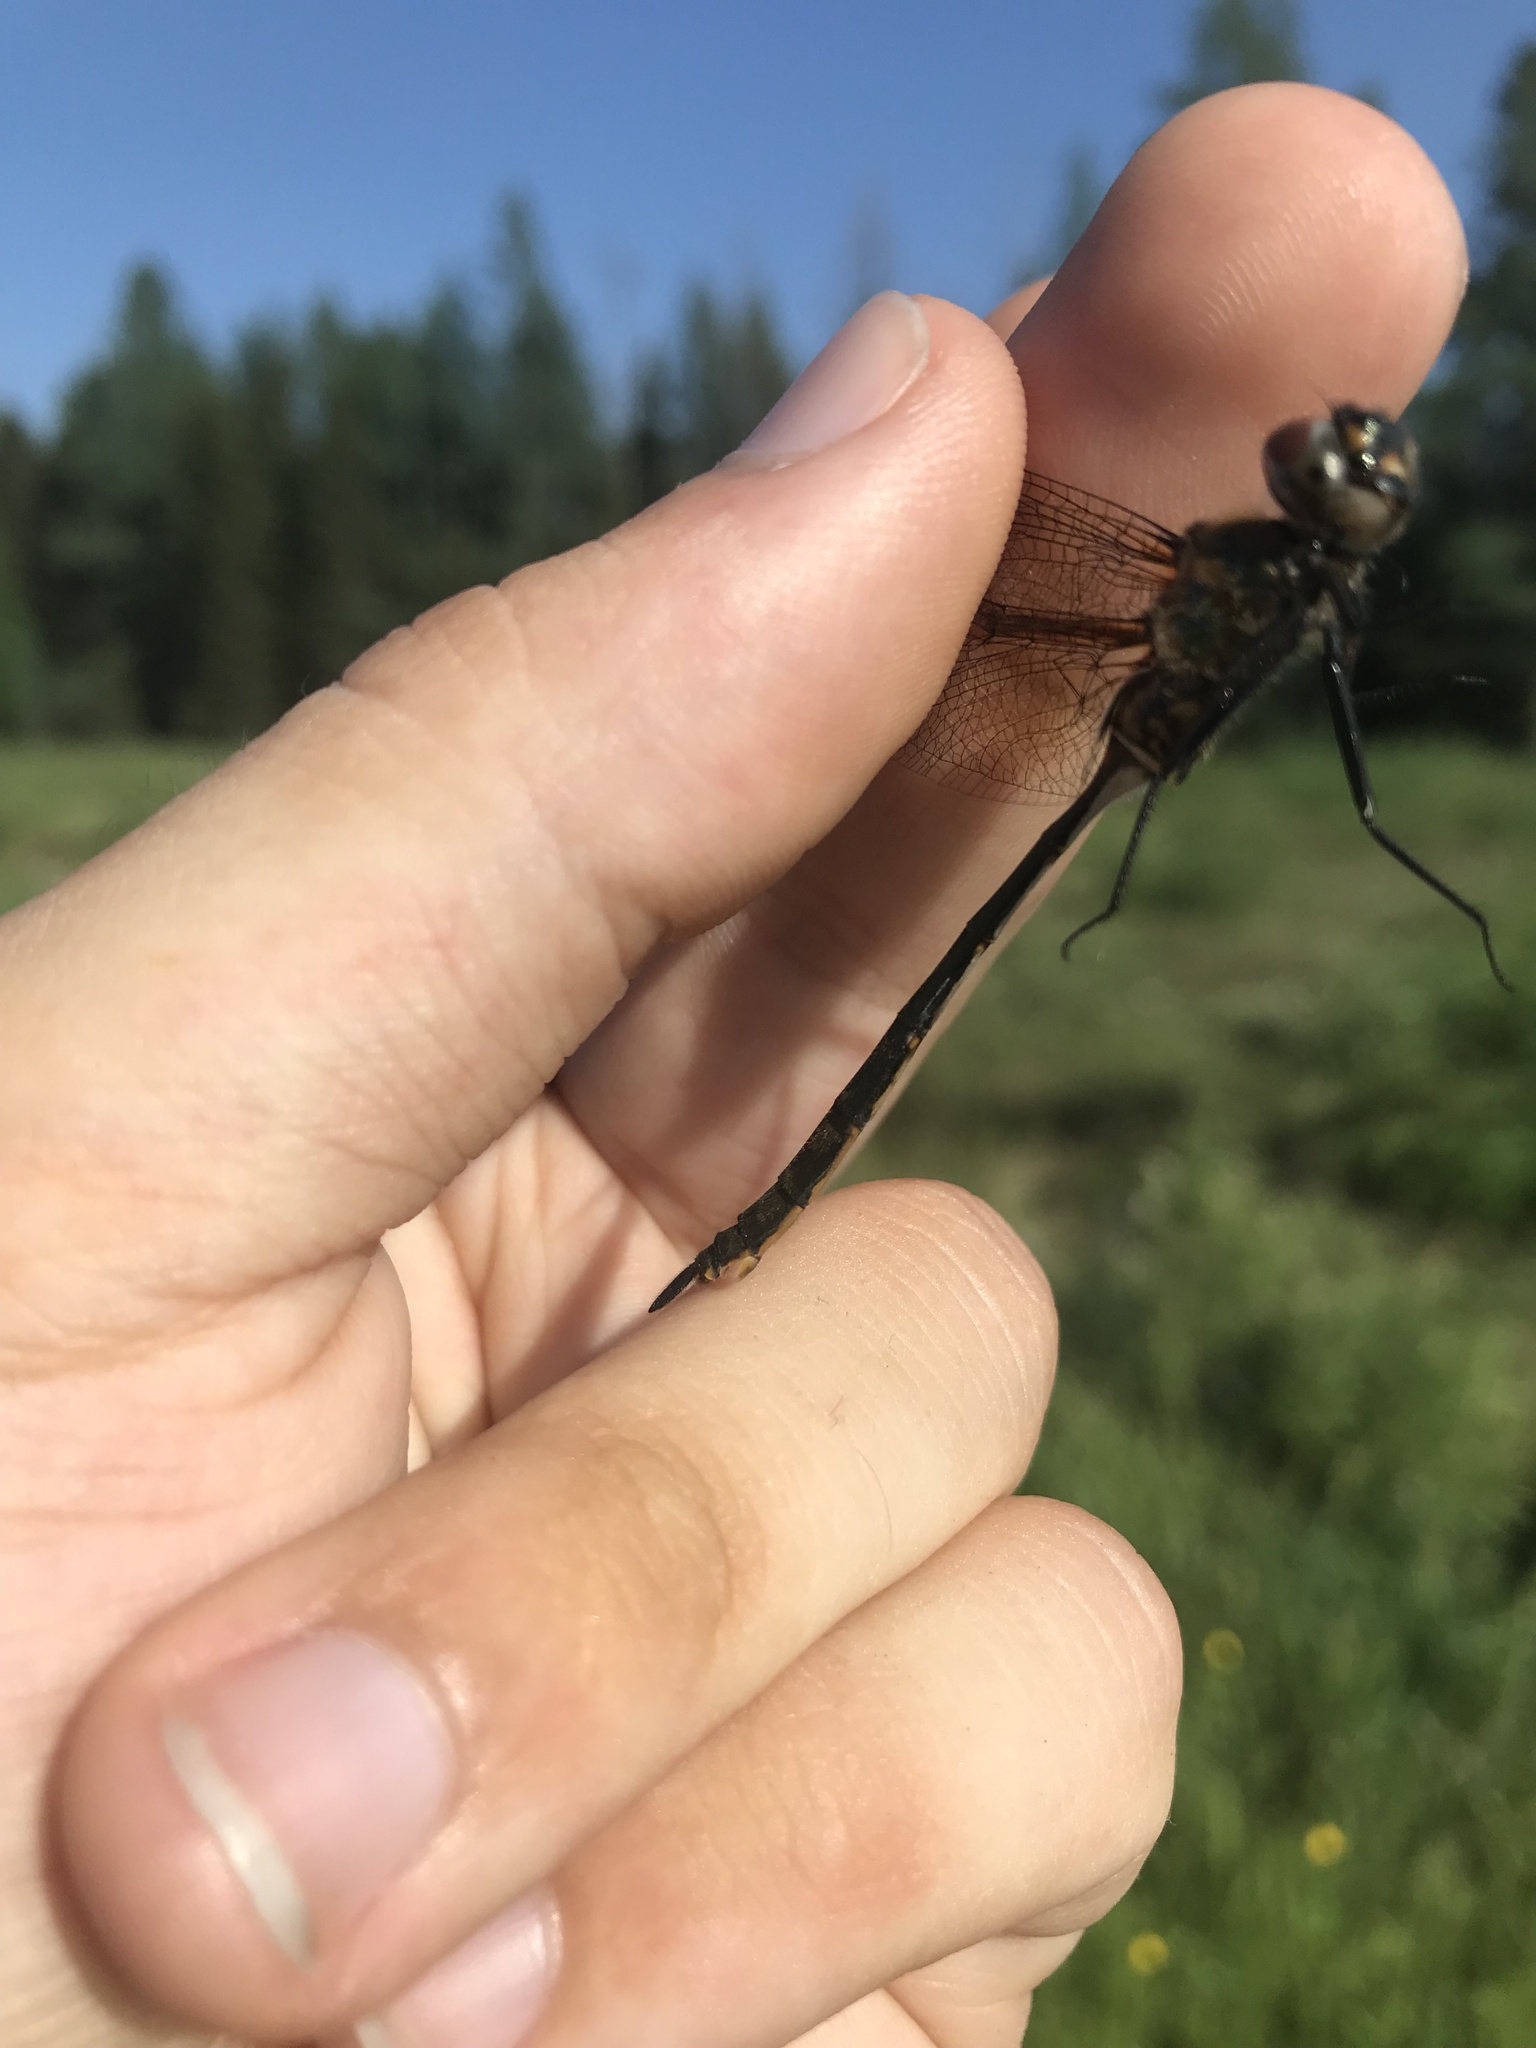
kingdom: Animalia
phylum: Arthropoda
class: Insecta
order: Odonata
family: Corduliidae
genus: Somatochlora
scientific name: Somatochlora franklini
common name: Delicate emerald
